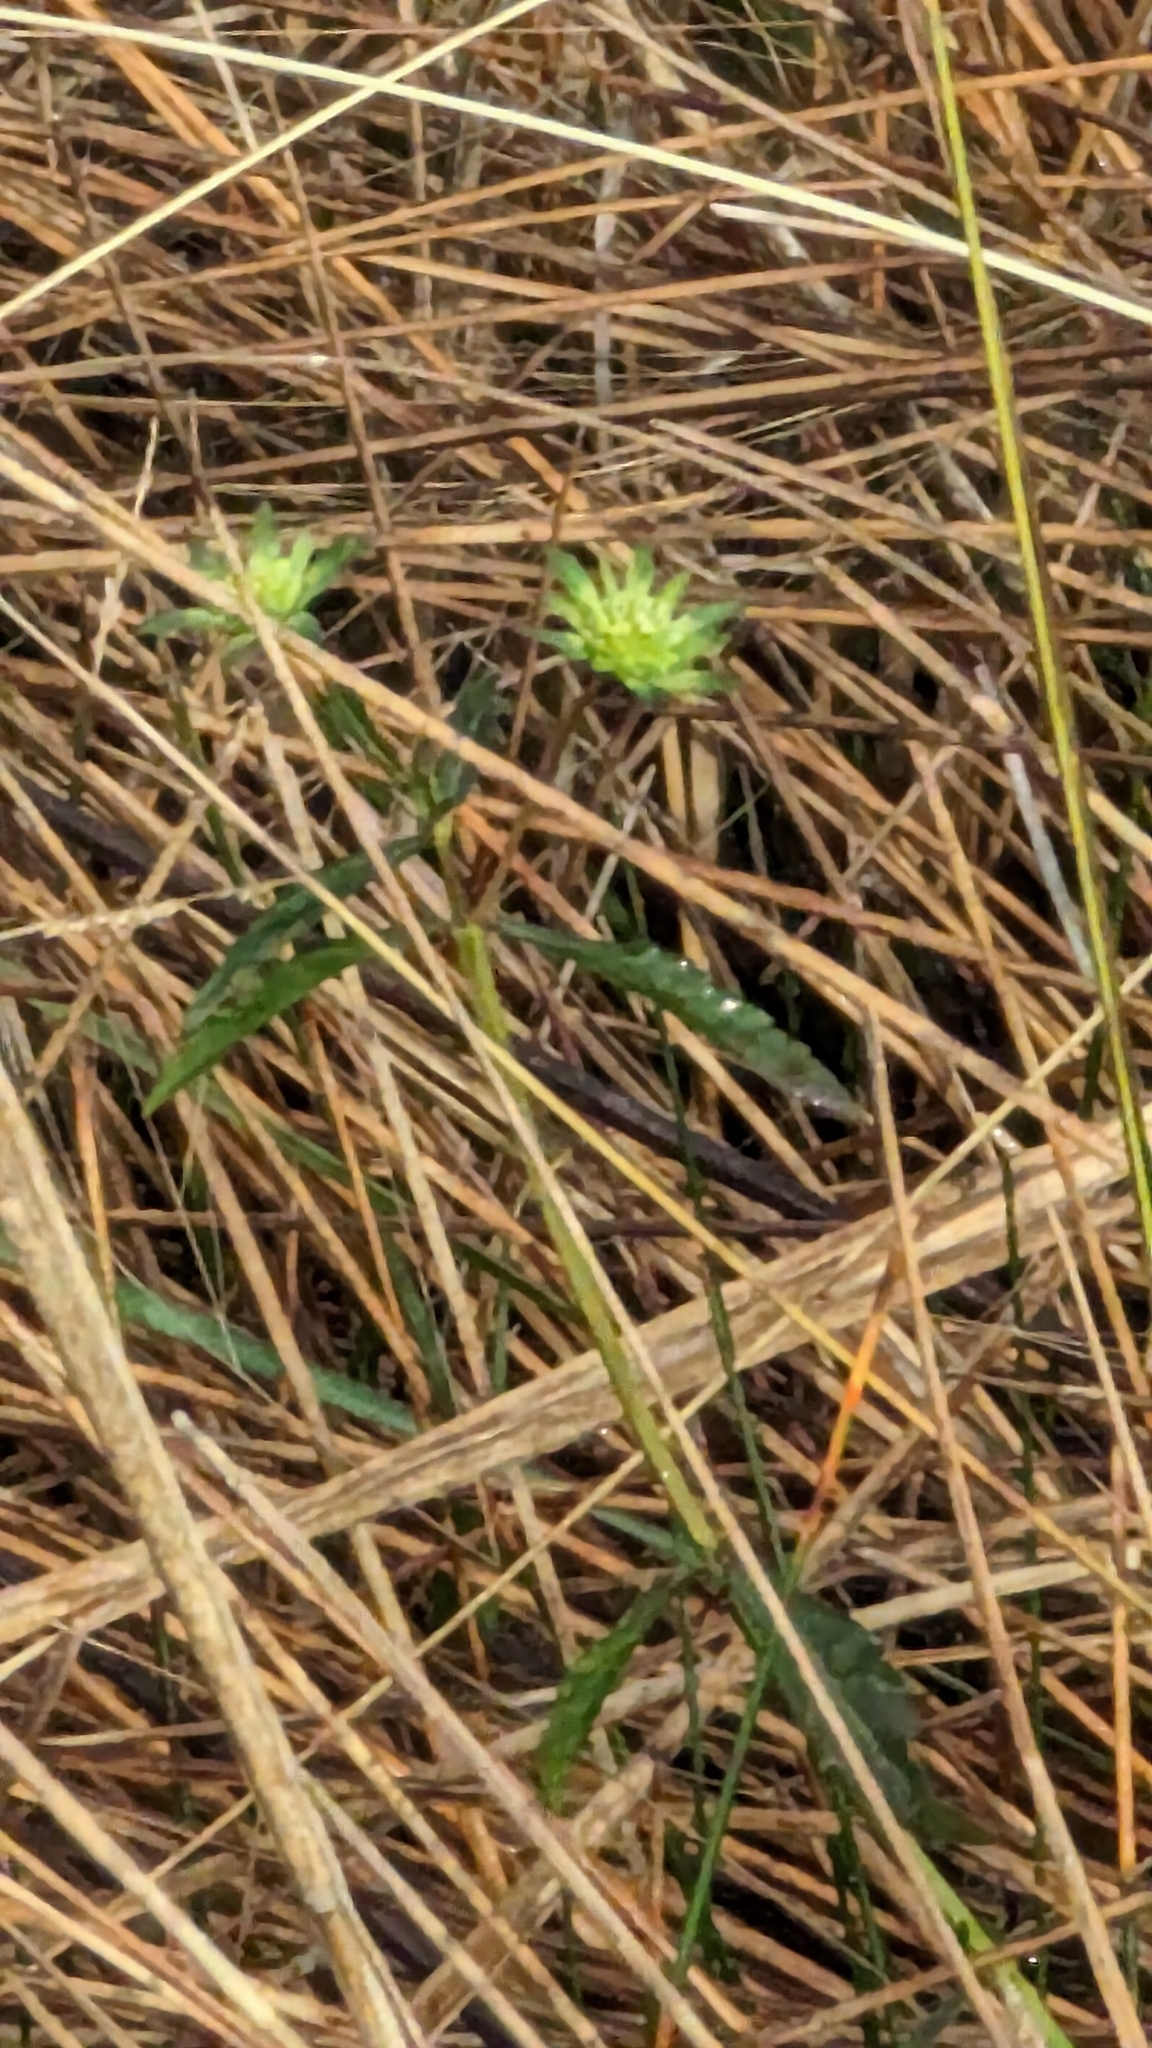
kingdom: Plantae
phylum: Tracheophyta
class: Magnoliopsida
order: Lamiales
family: Lamiaceae
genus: Hyptis
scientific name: Hyptis alata
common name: Cluster bush-mint
